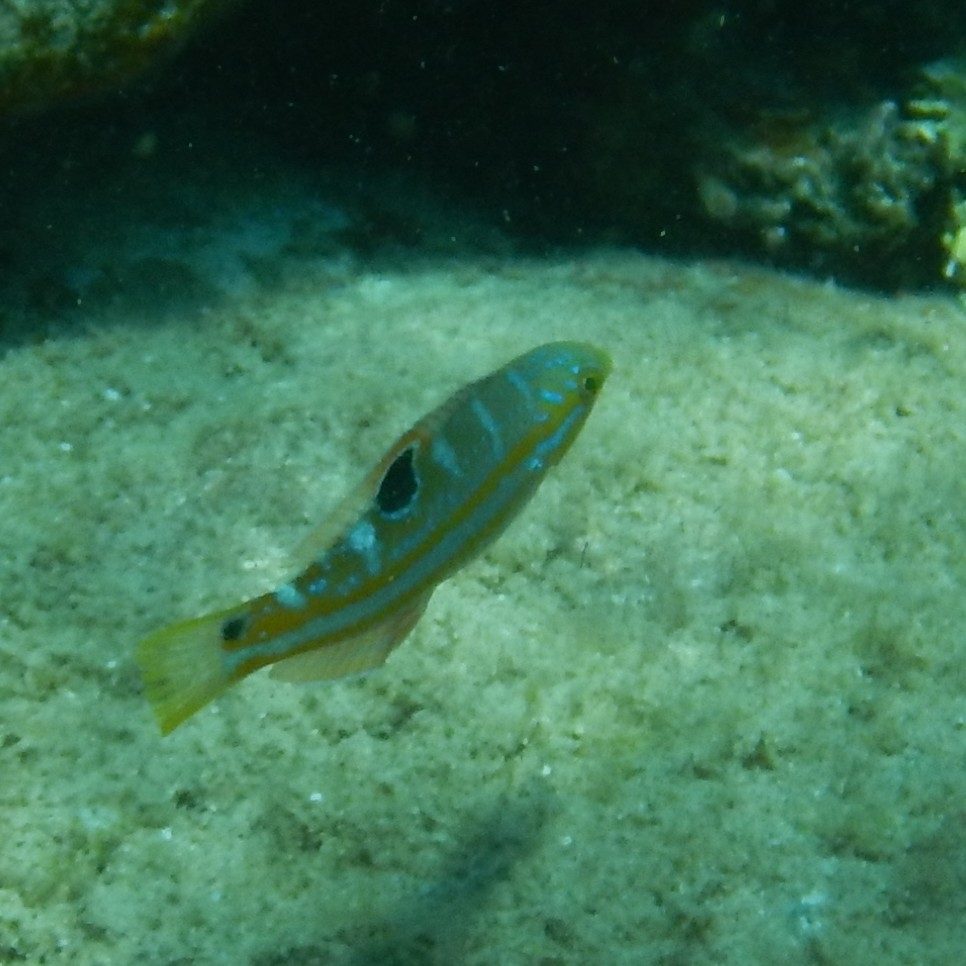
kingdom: Animalia
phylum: Chordata
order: Perciformes
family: Labridae
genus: Halichoeres
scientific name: Halichoeres radiatus
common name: Puddingwife
